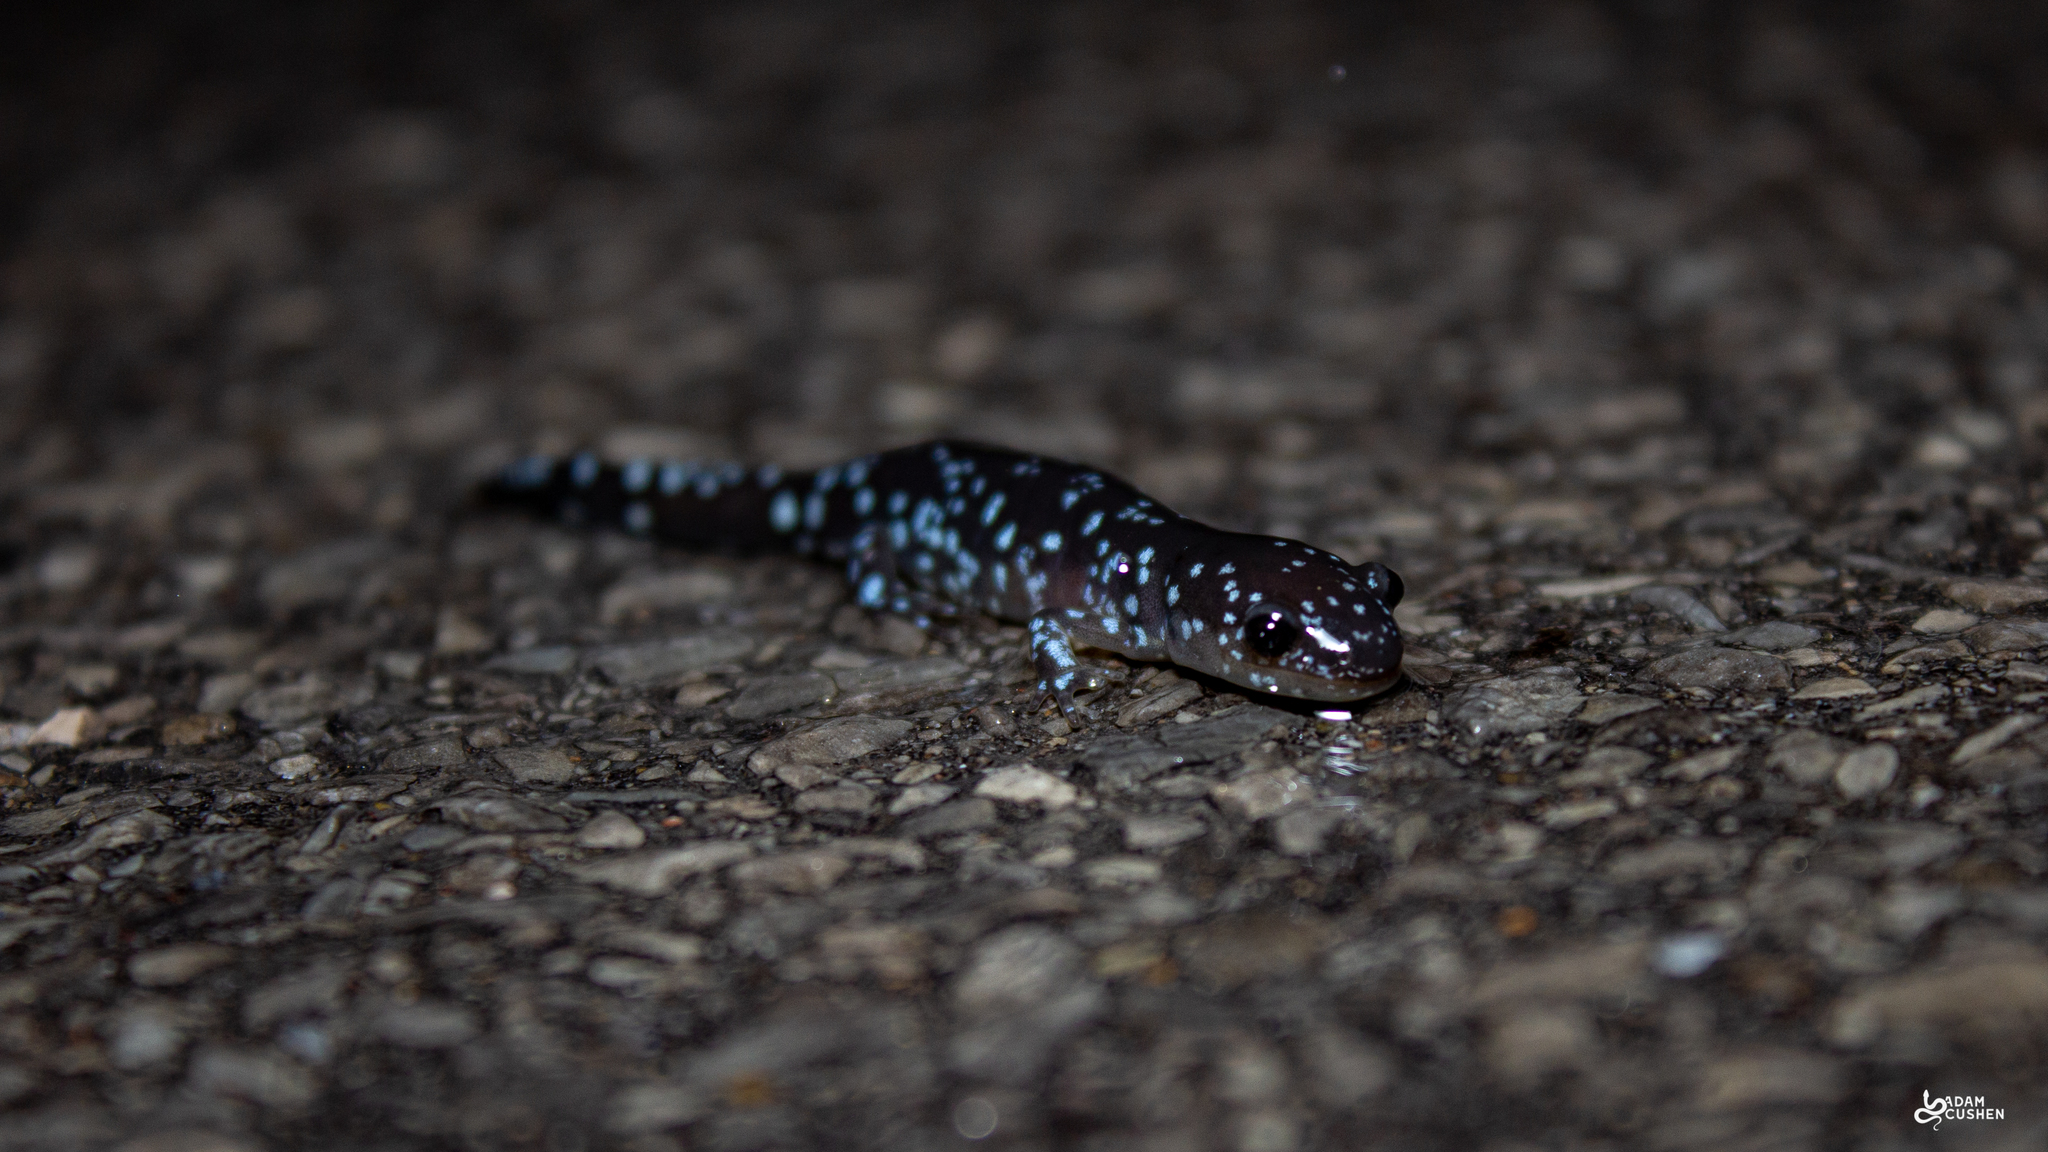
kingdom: Animalia
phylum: Chordata
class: Amphibia
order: Caudata
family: Ambystomatidae
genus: Ambystoma
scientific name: Ambystoma laterale
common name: Blue-spotted salamander
